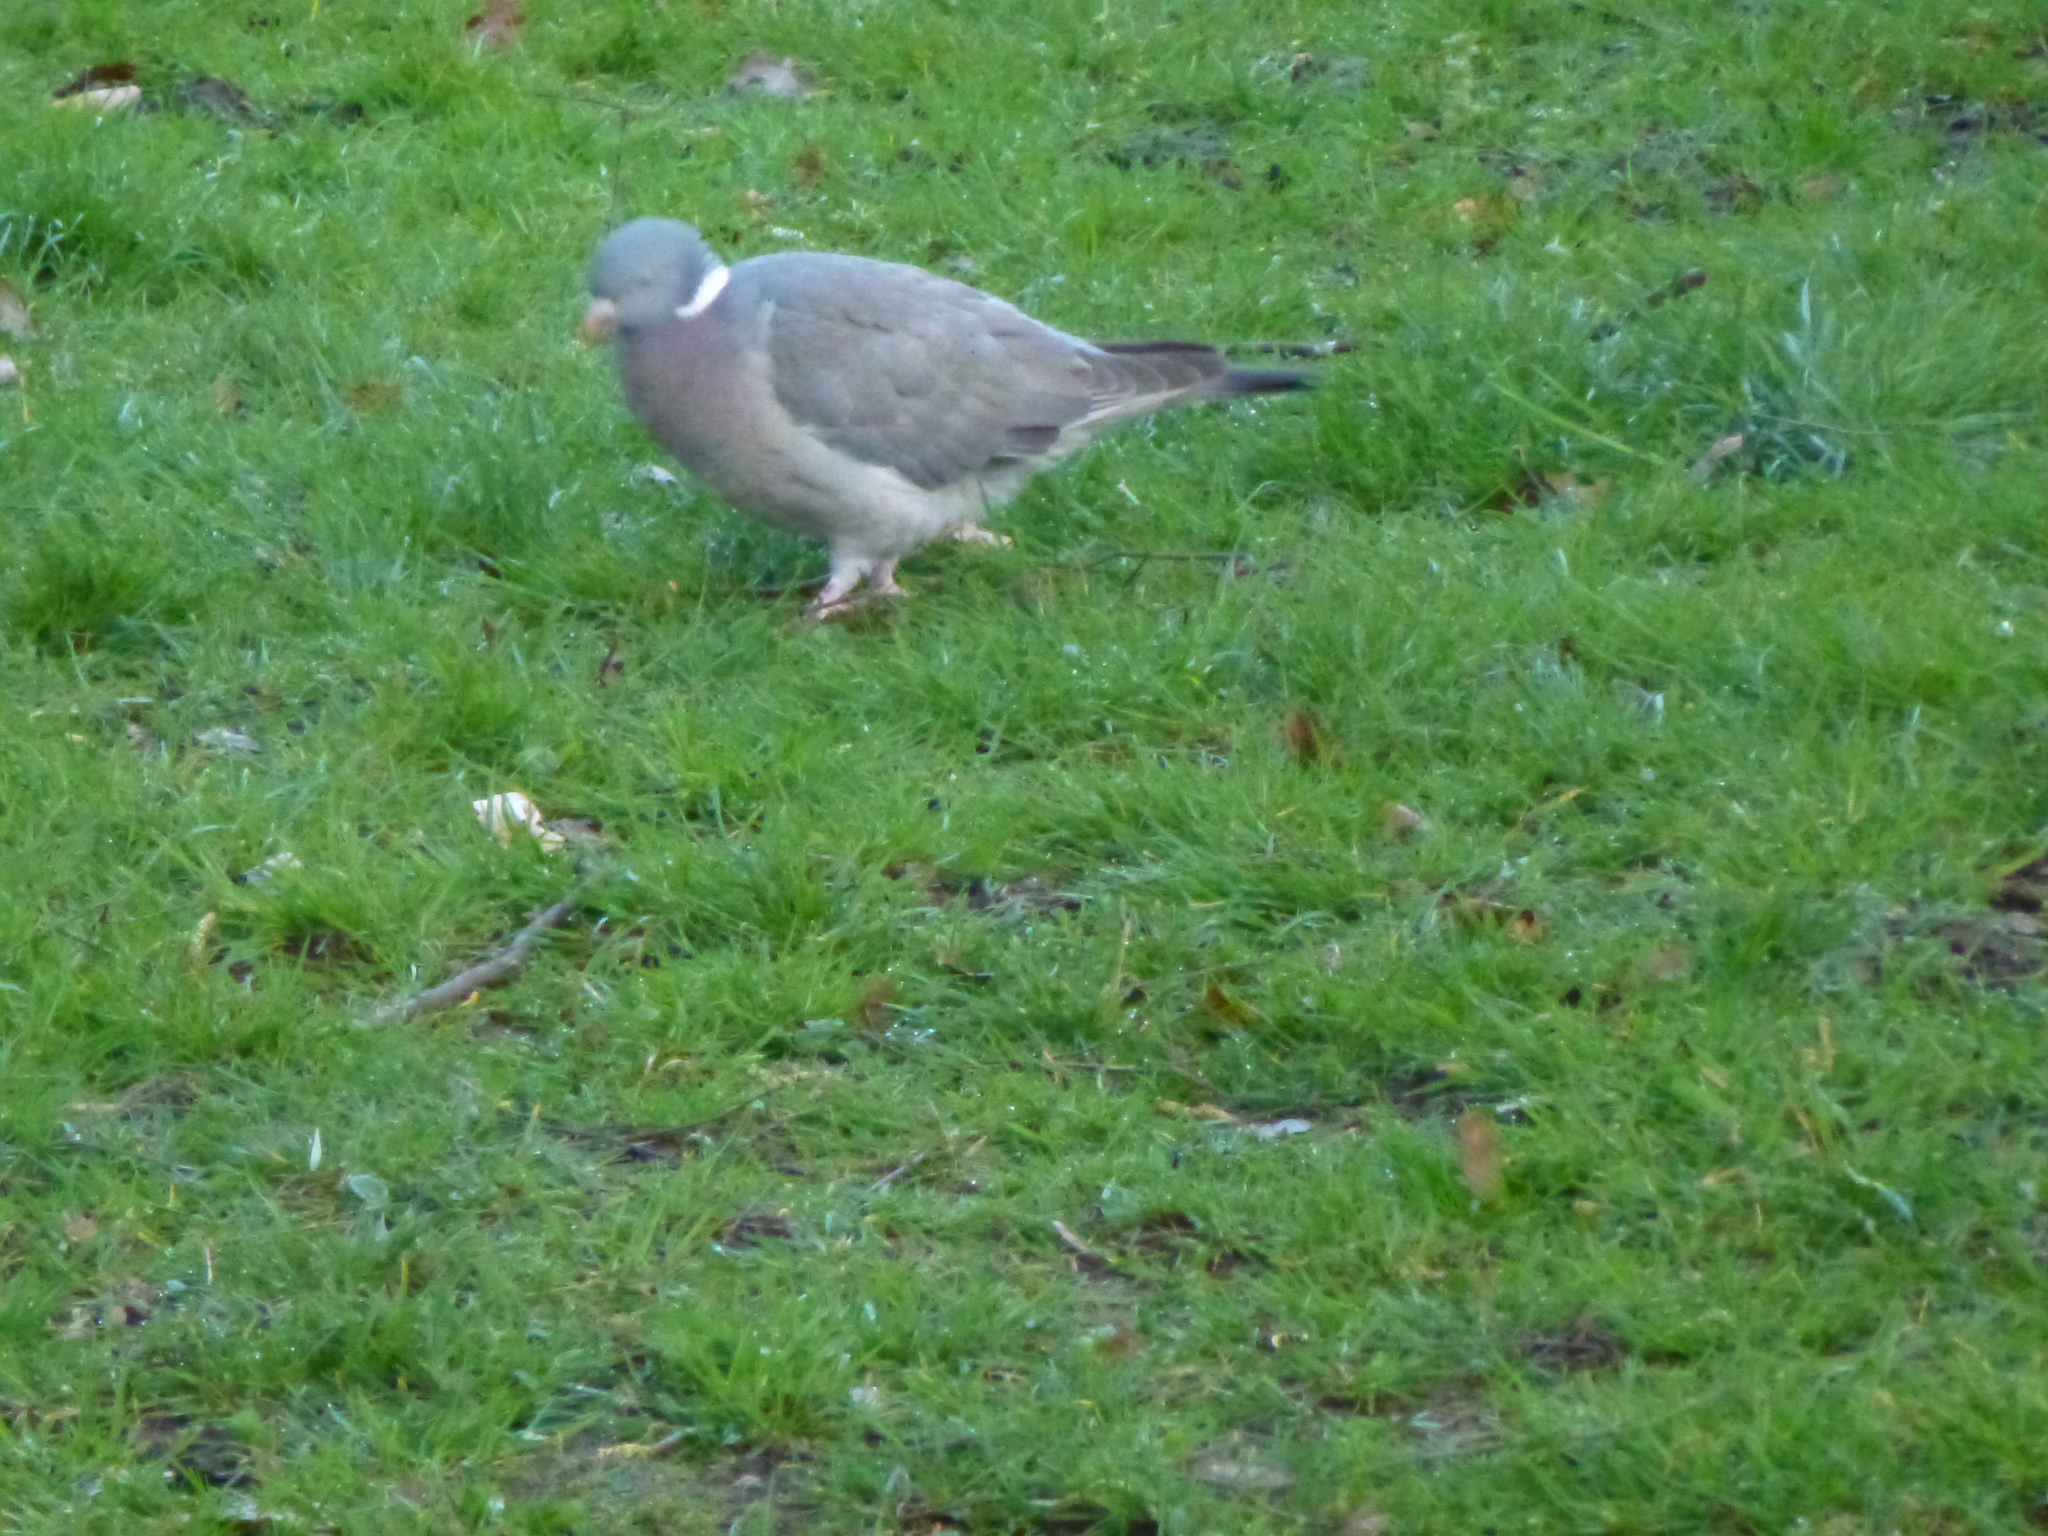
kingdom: Animalia
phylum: Chordata
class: Aves
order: Columbiformes
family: Columbidae
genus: Columba
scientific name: Columba palumbus
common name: Common wood pigeon
